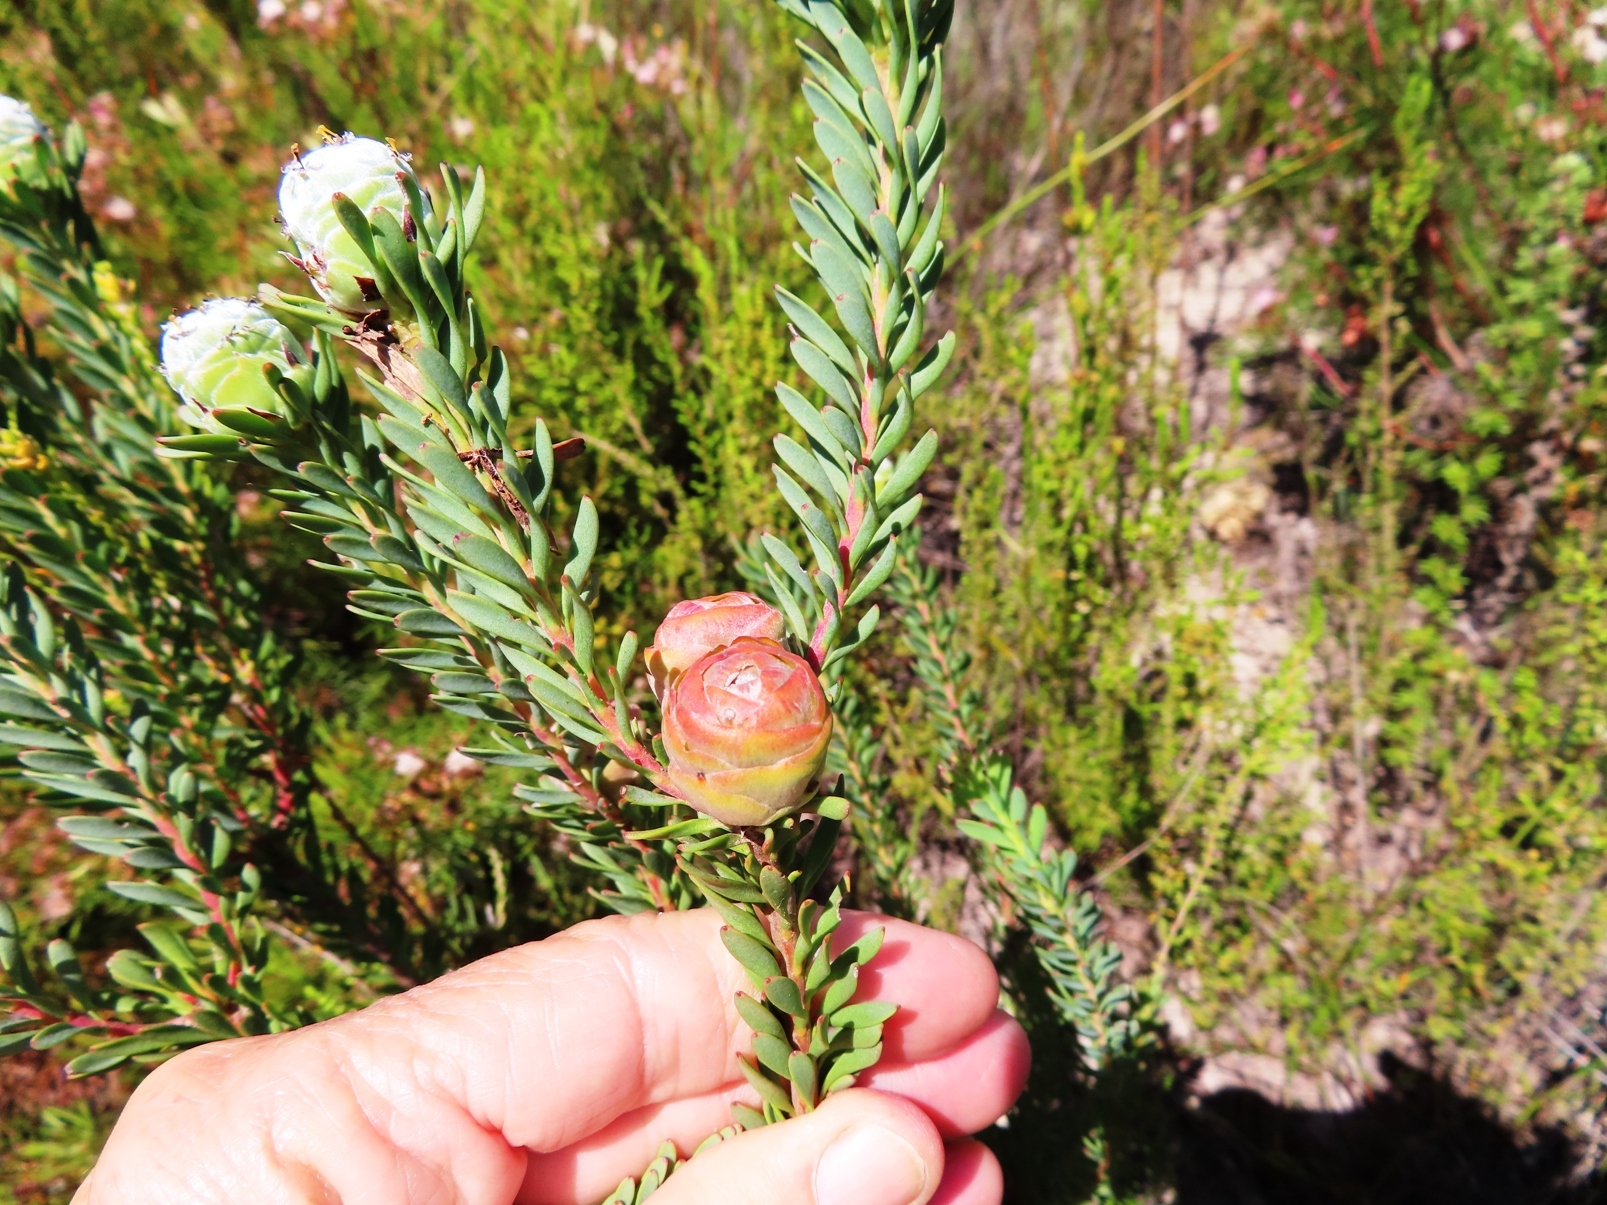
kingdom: Plantae
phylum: Tracheophyta
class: Magnoliopsida
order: Proteales
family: Proteaceae
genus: Leucadendron
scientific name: Leucadendron linifolium
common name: Line-leaf conebush
